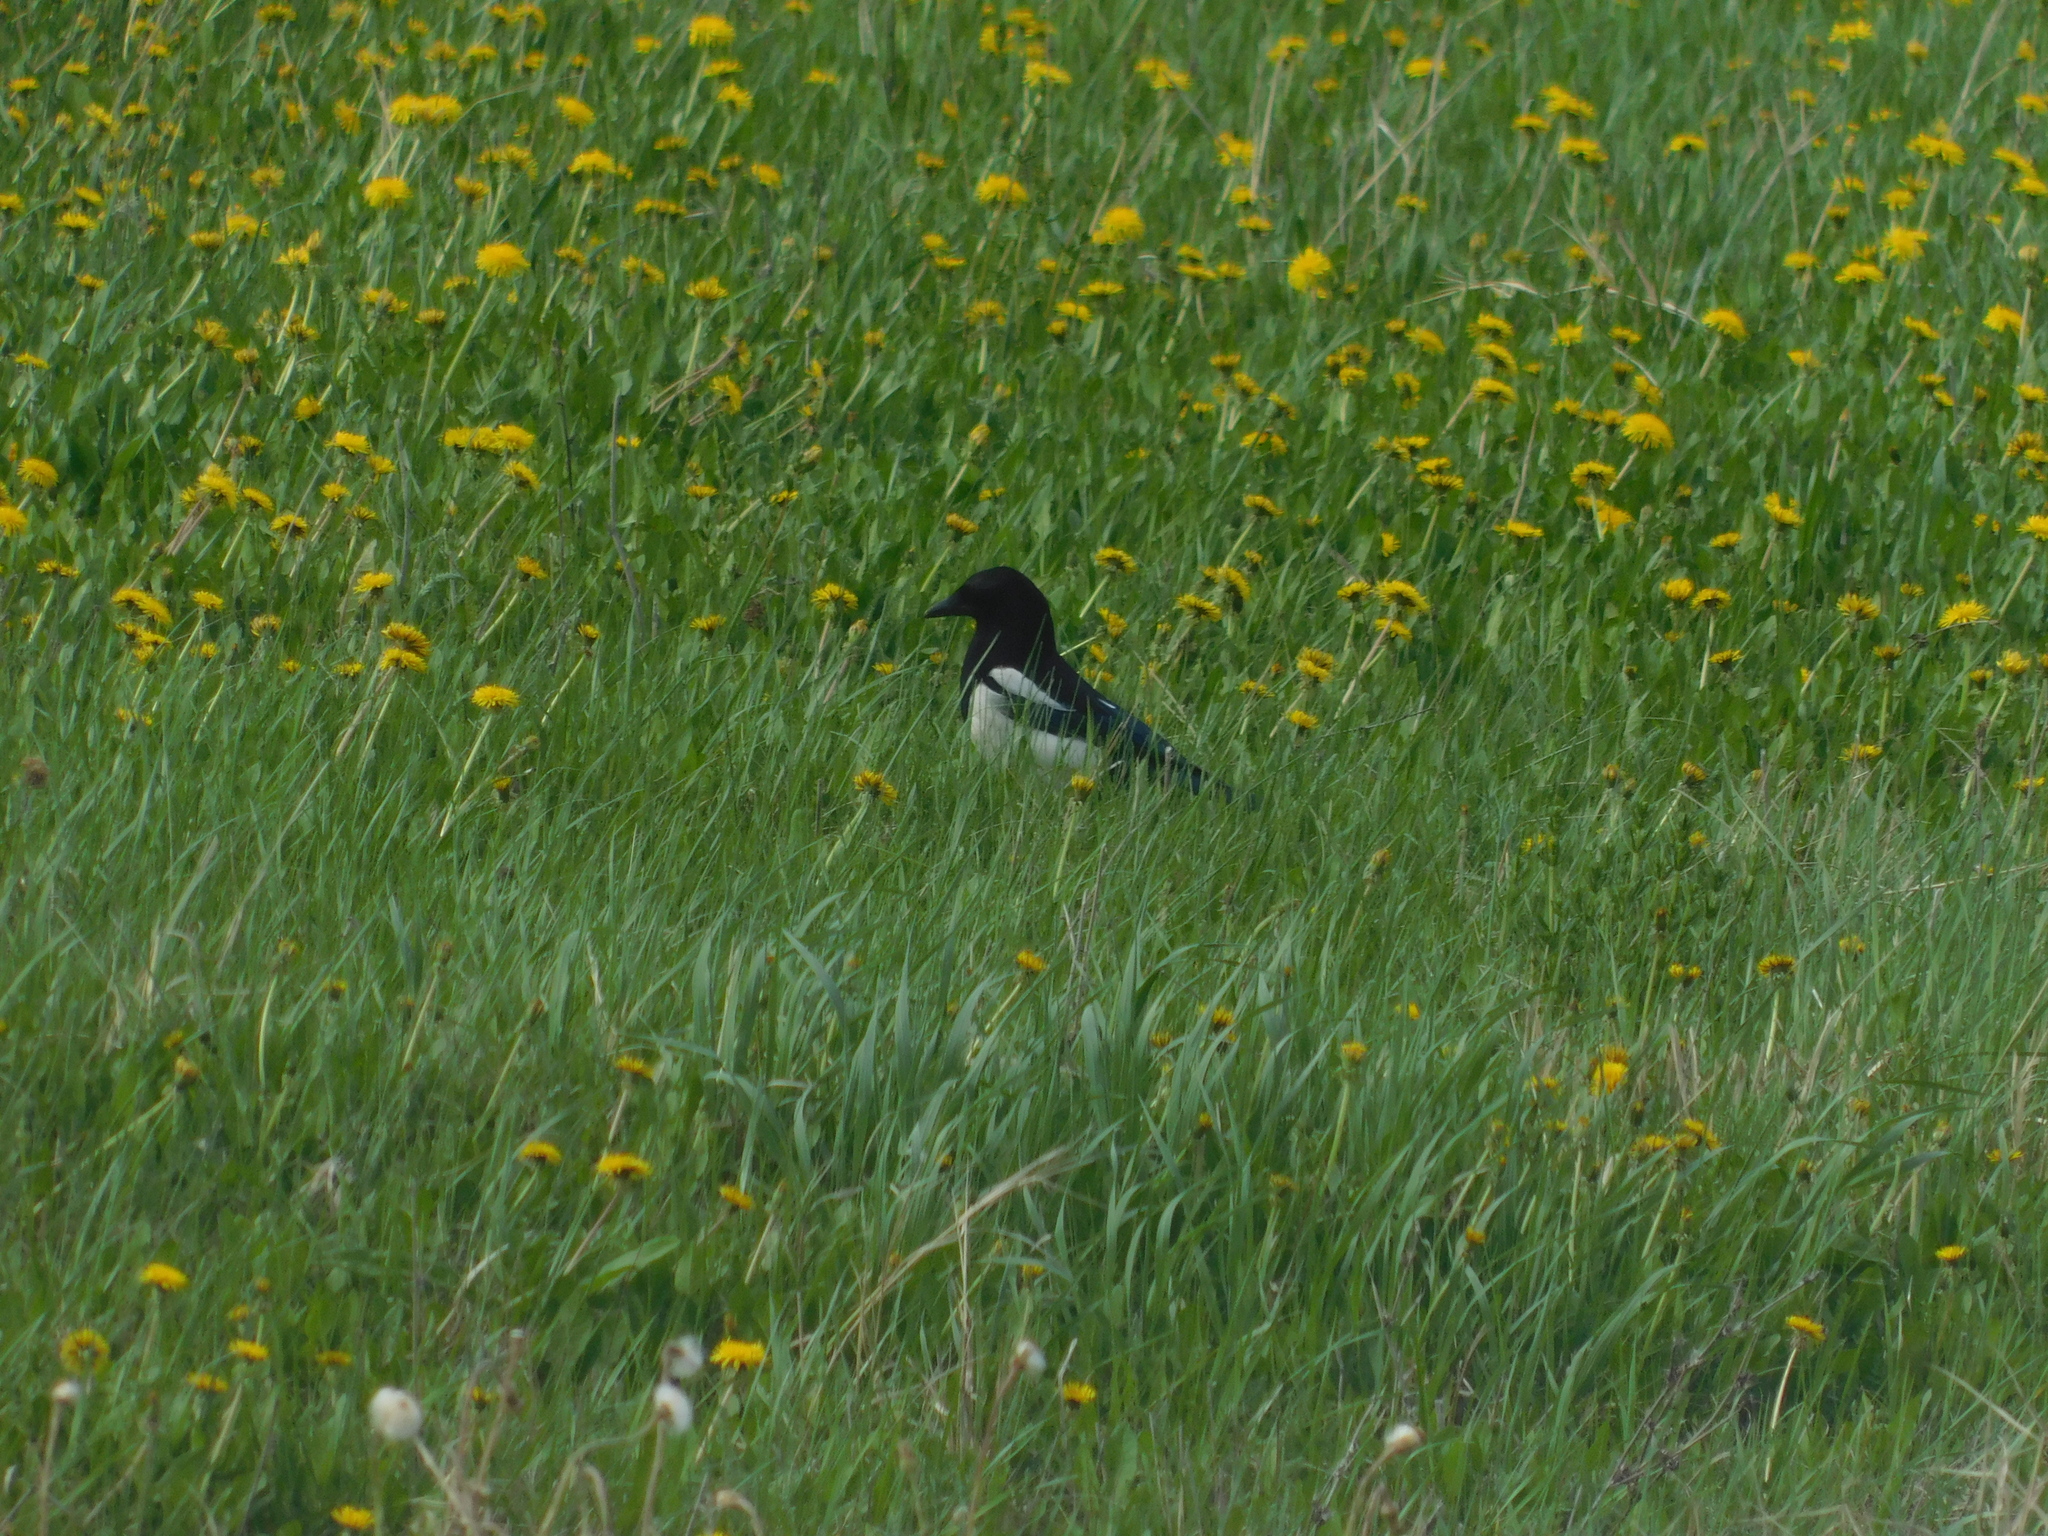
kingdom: Animalia
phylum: Chordata
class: Aves
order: Passeriformes
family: Corvidae
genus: Pica
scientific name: Pica pica
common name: Eurasian magpie
